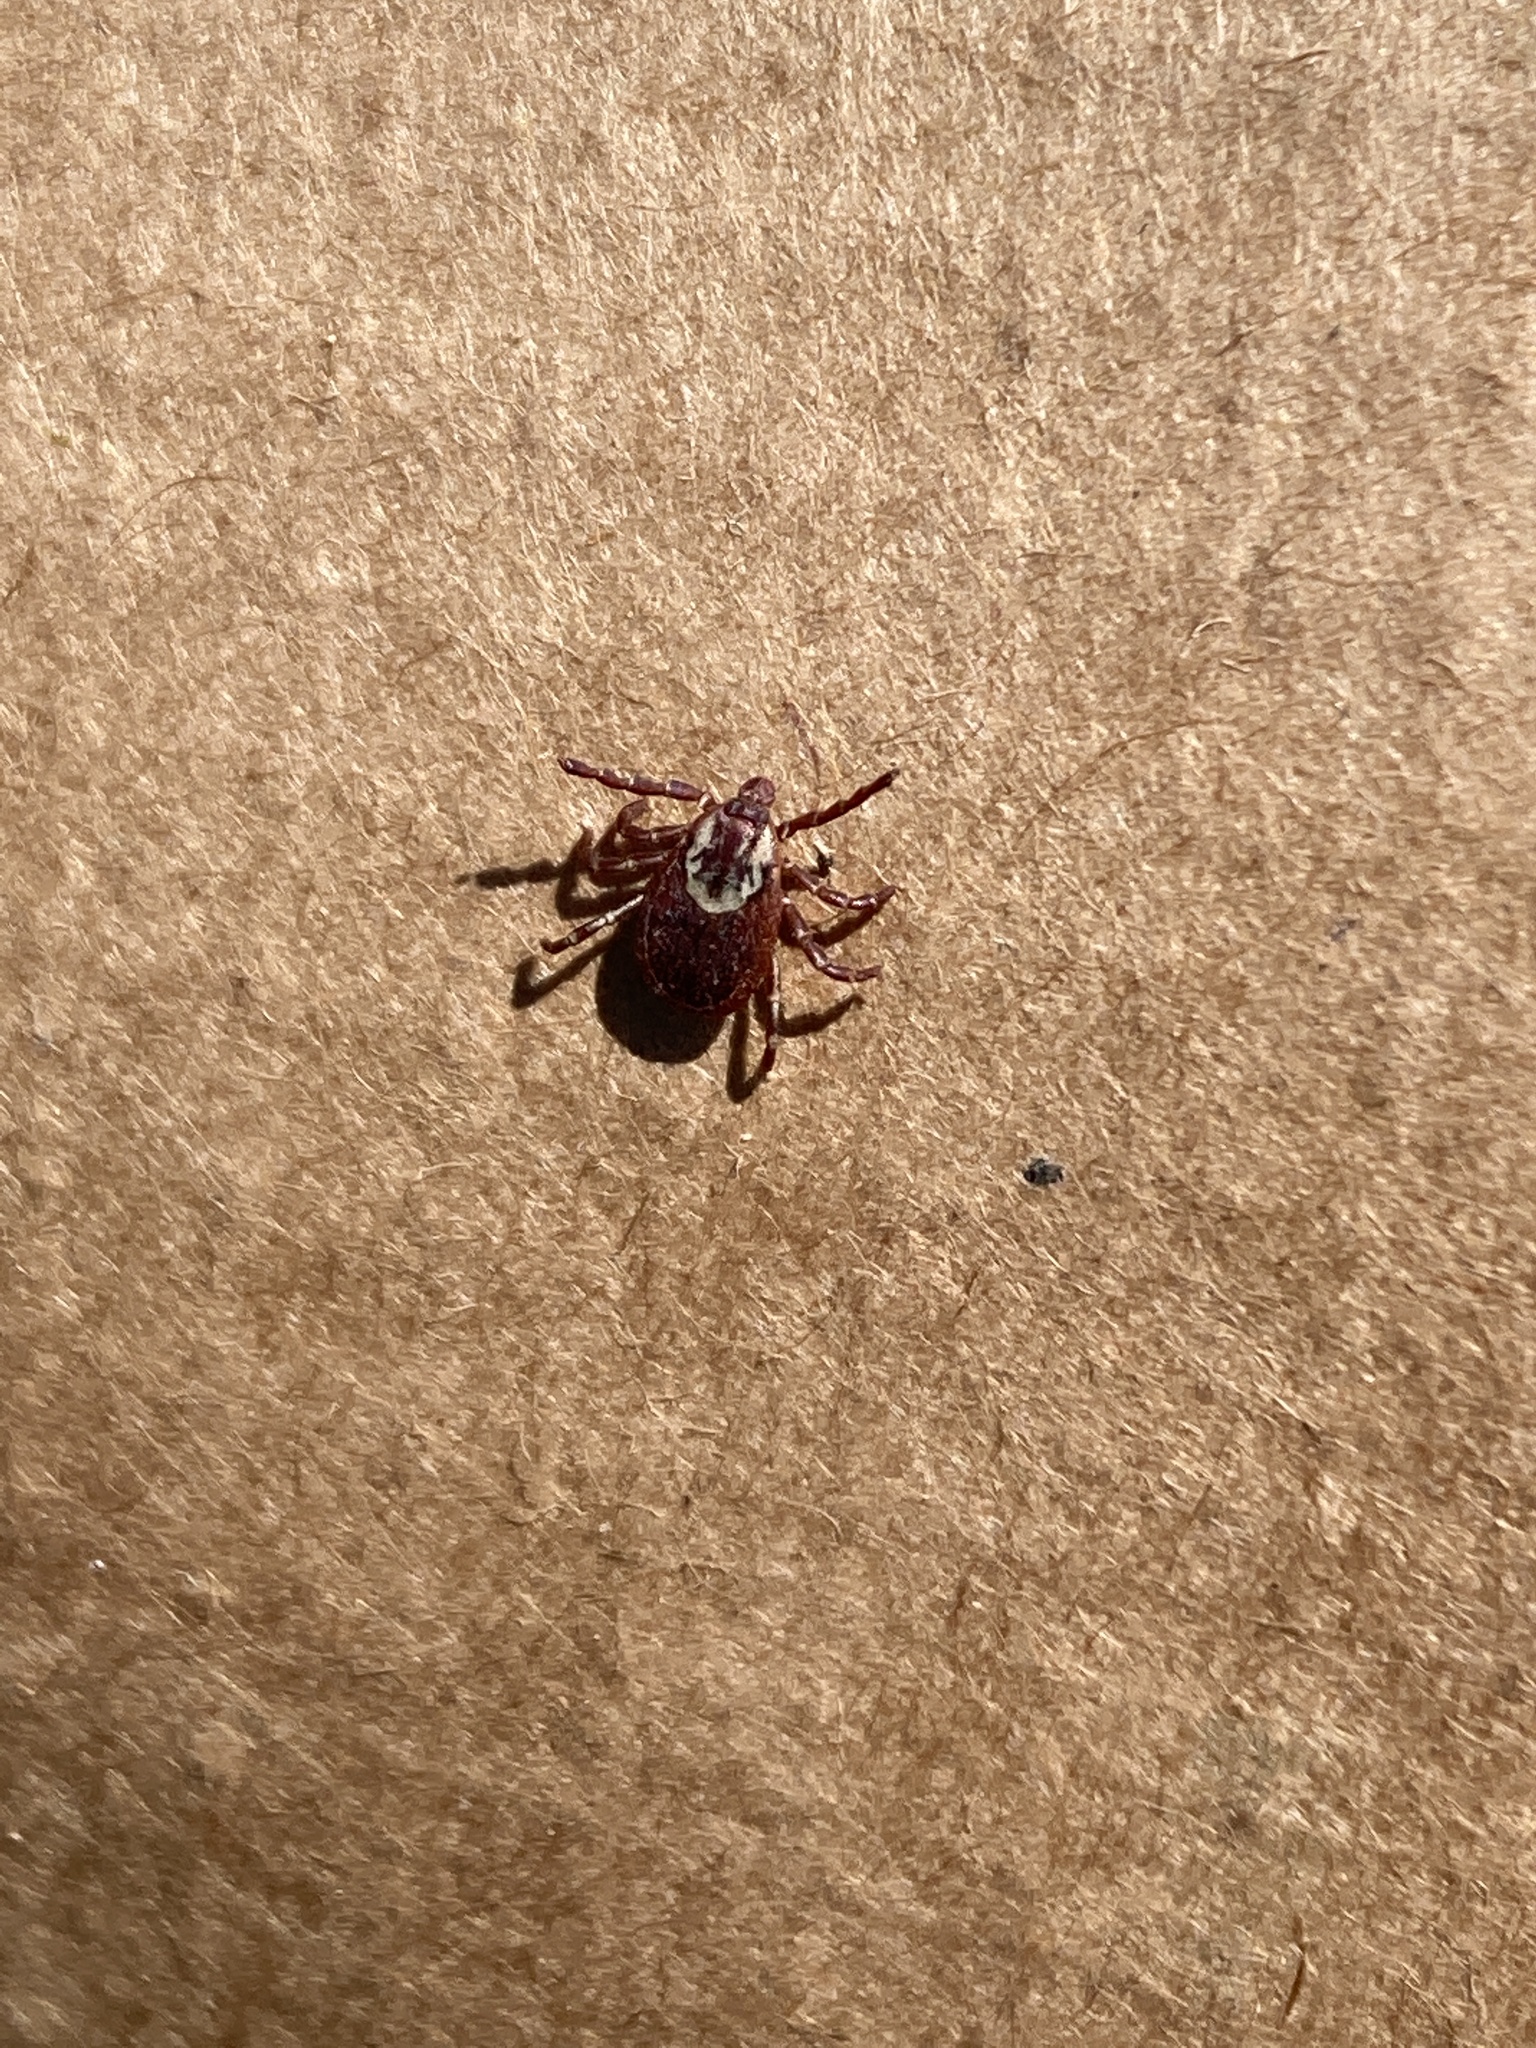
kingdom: Animalia
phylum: Arthropoda
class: Arachnida
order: Ixodida
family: Ixodidae
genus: Dermacentor
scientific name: Dermacentor variabilis
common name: American dog tick
